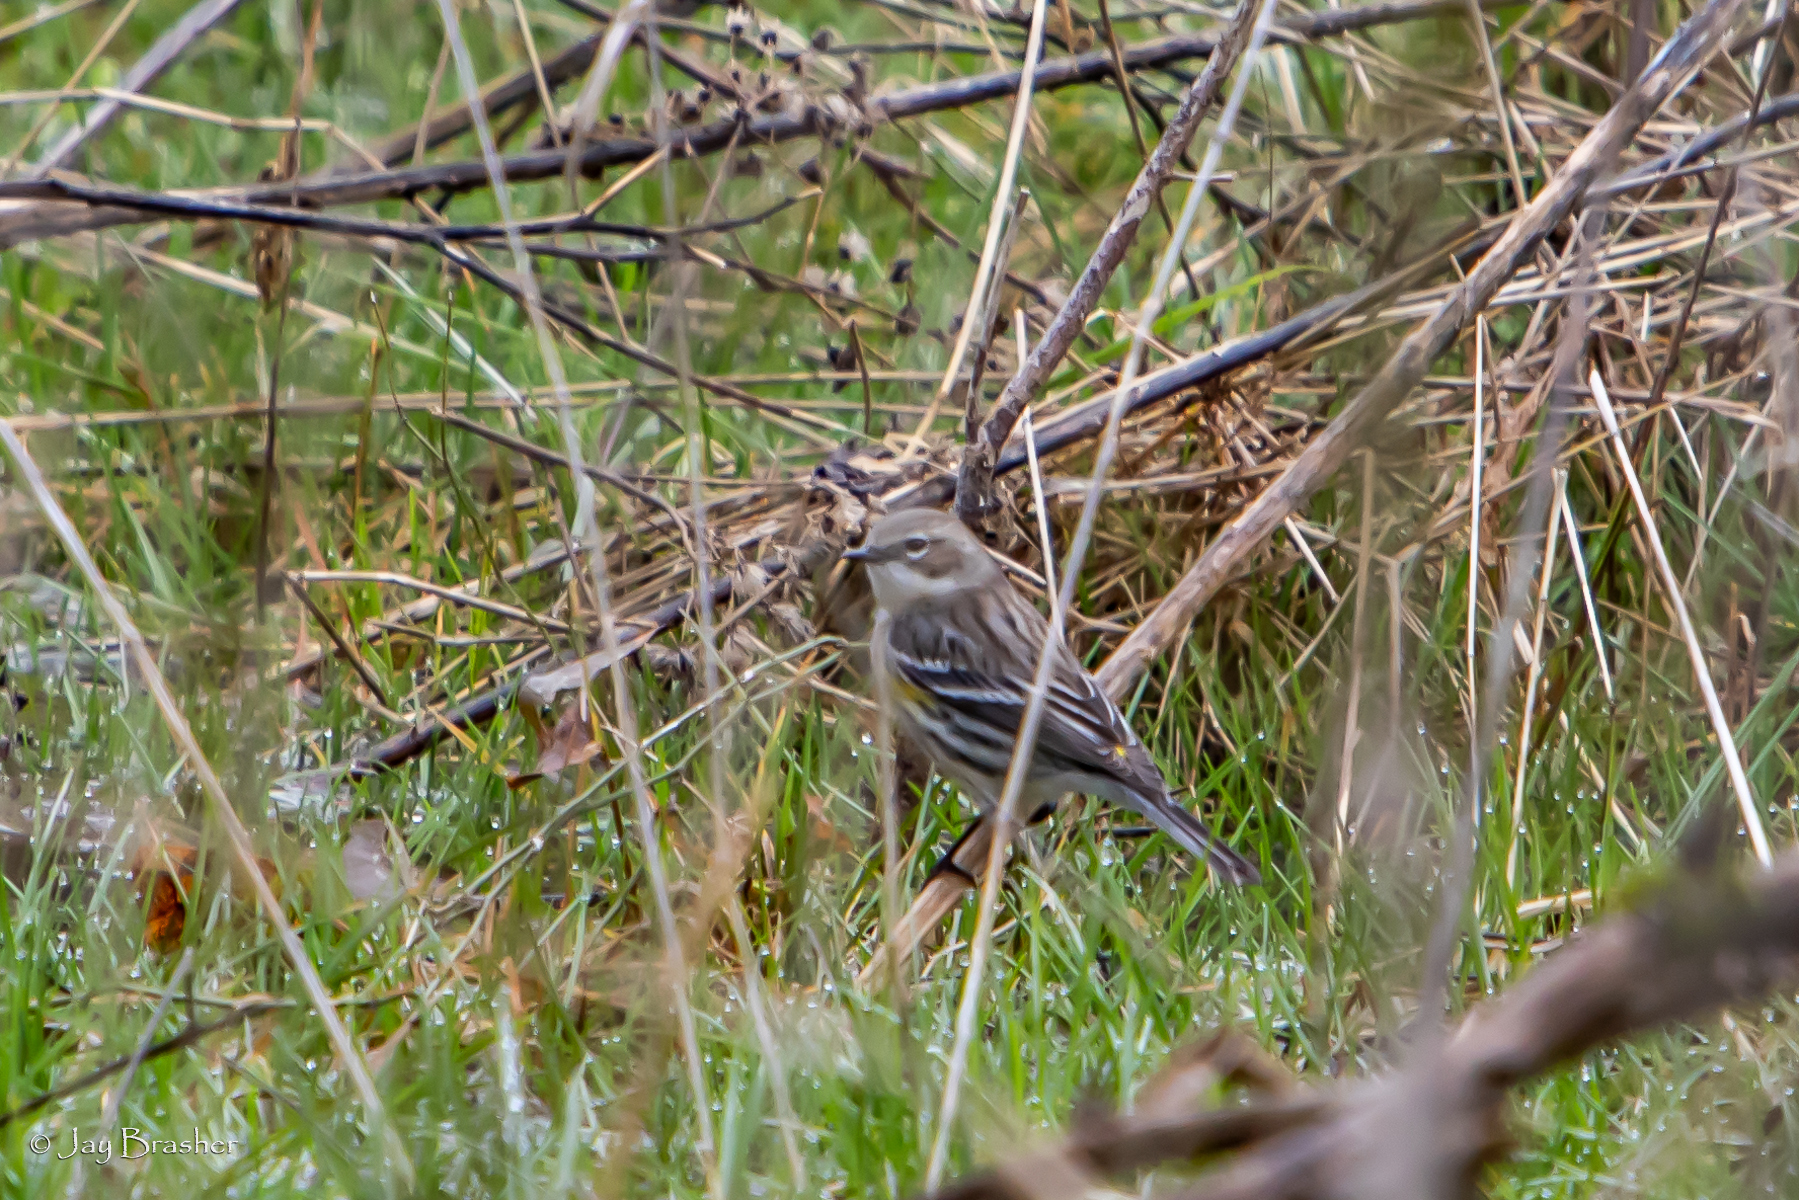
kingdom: Animalia
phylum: Chordata
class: Aves
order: Passeriformes
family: Parulidae
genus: Setophaga
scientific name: Setophaga coronata
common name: Myrtle warbler
